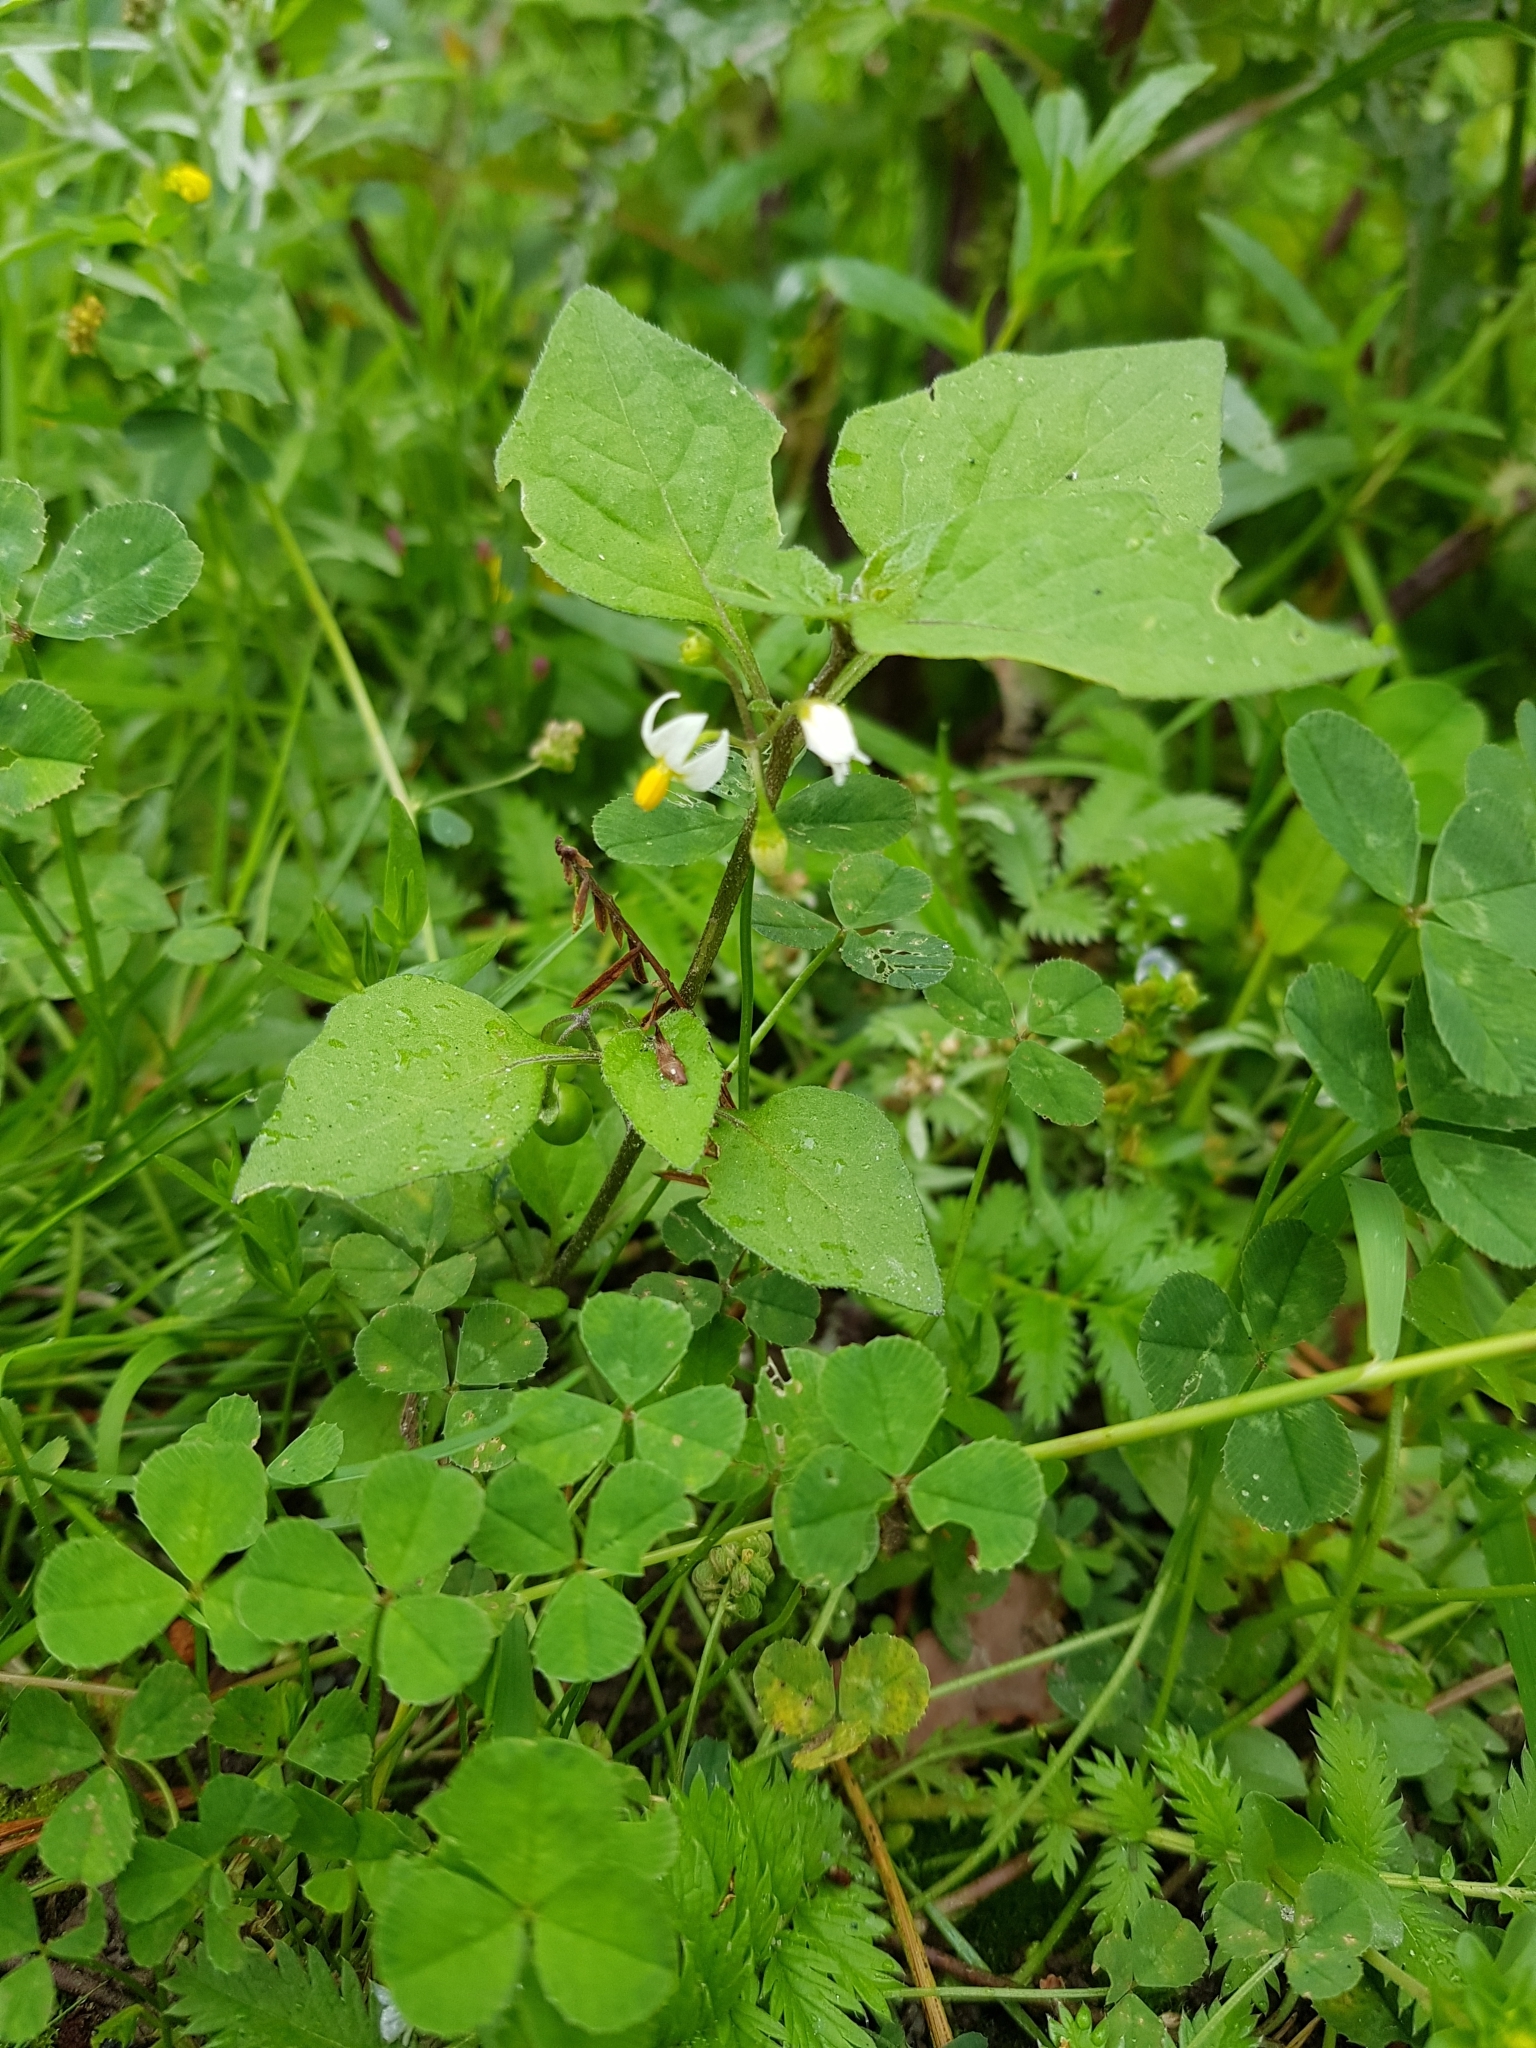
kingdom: Plantae
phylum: Tracheophyta
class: Magnoliopsida
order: Solanales
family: Solanaceae
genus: Solanum
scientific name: Solanum nigrum
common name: Black nightshade
